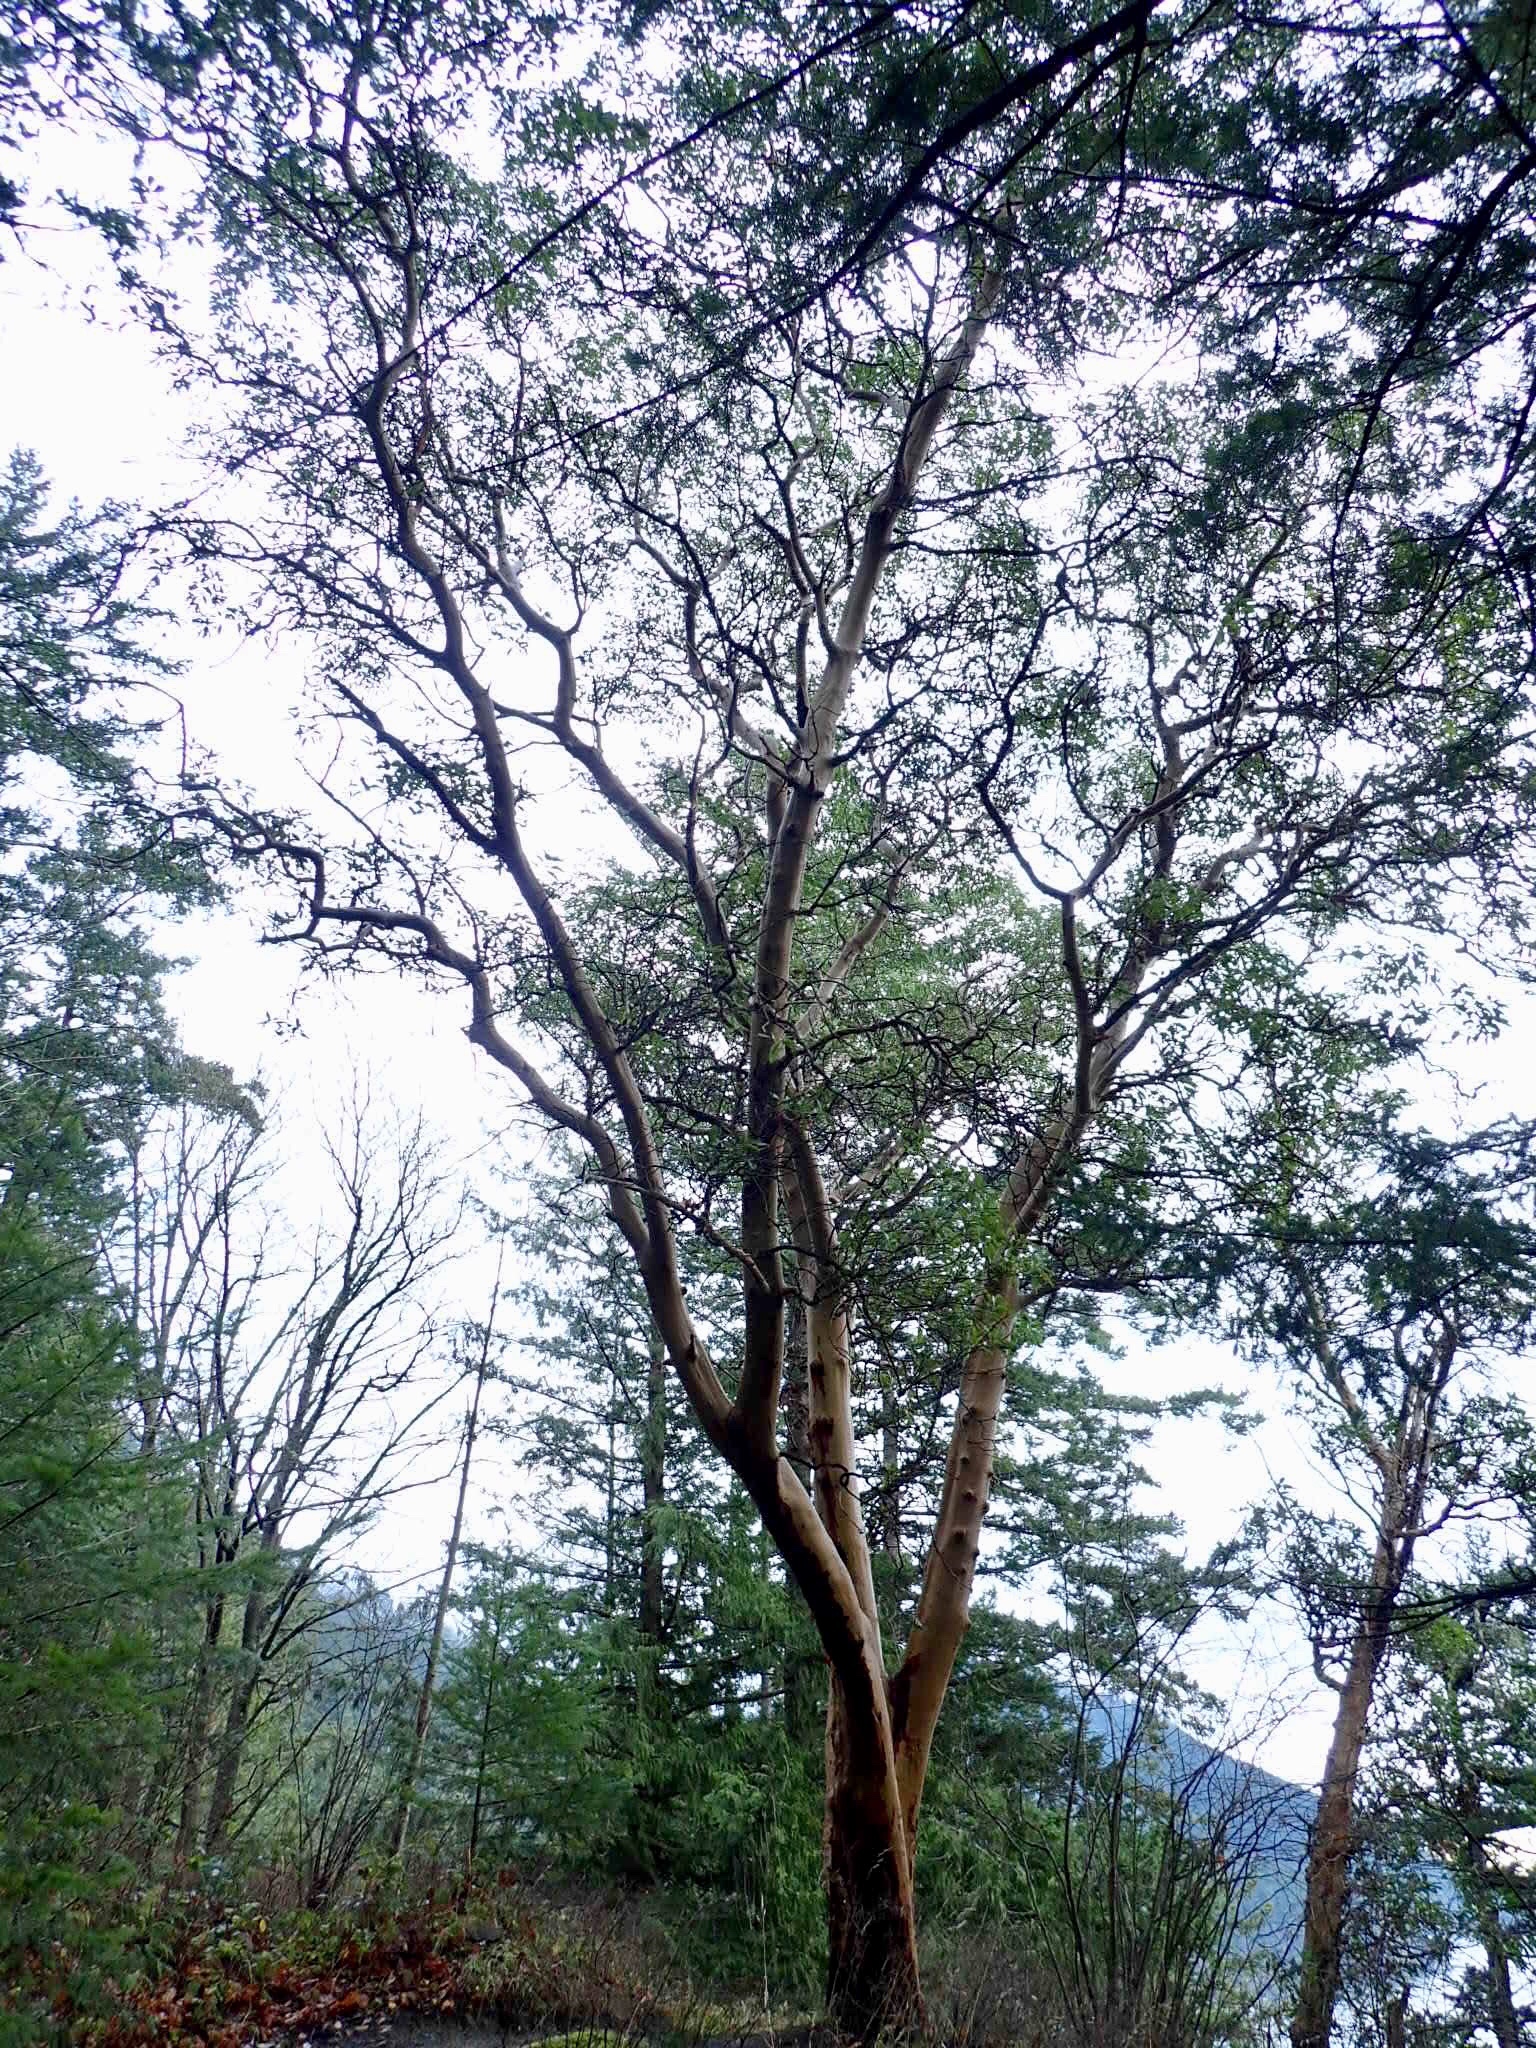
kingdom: Plantae
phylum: Tracheophyta
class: Magnoliopsida
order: Ericales
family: Ericaceae
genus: Arbutus
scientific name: Arbutus menziesii
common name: Pacific madrone
